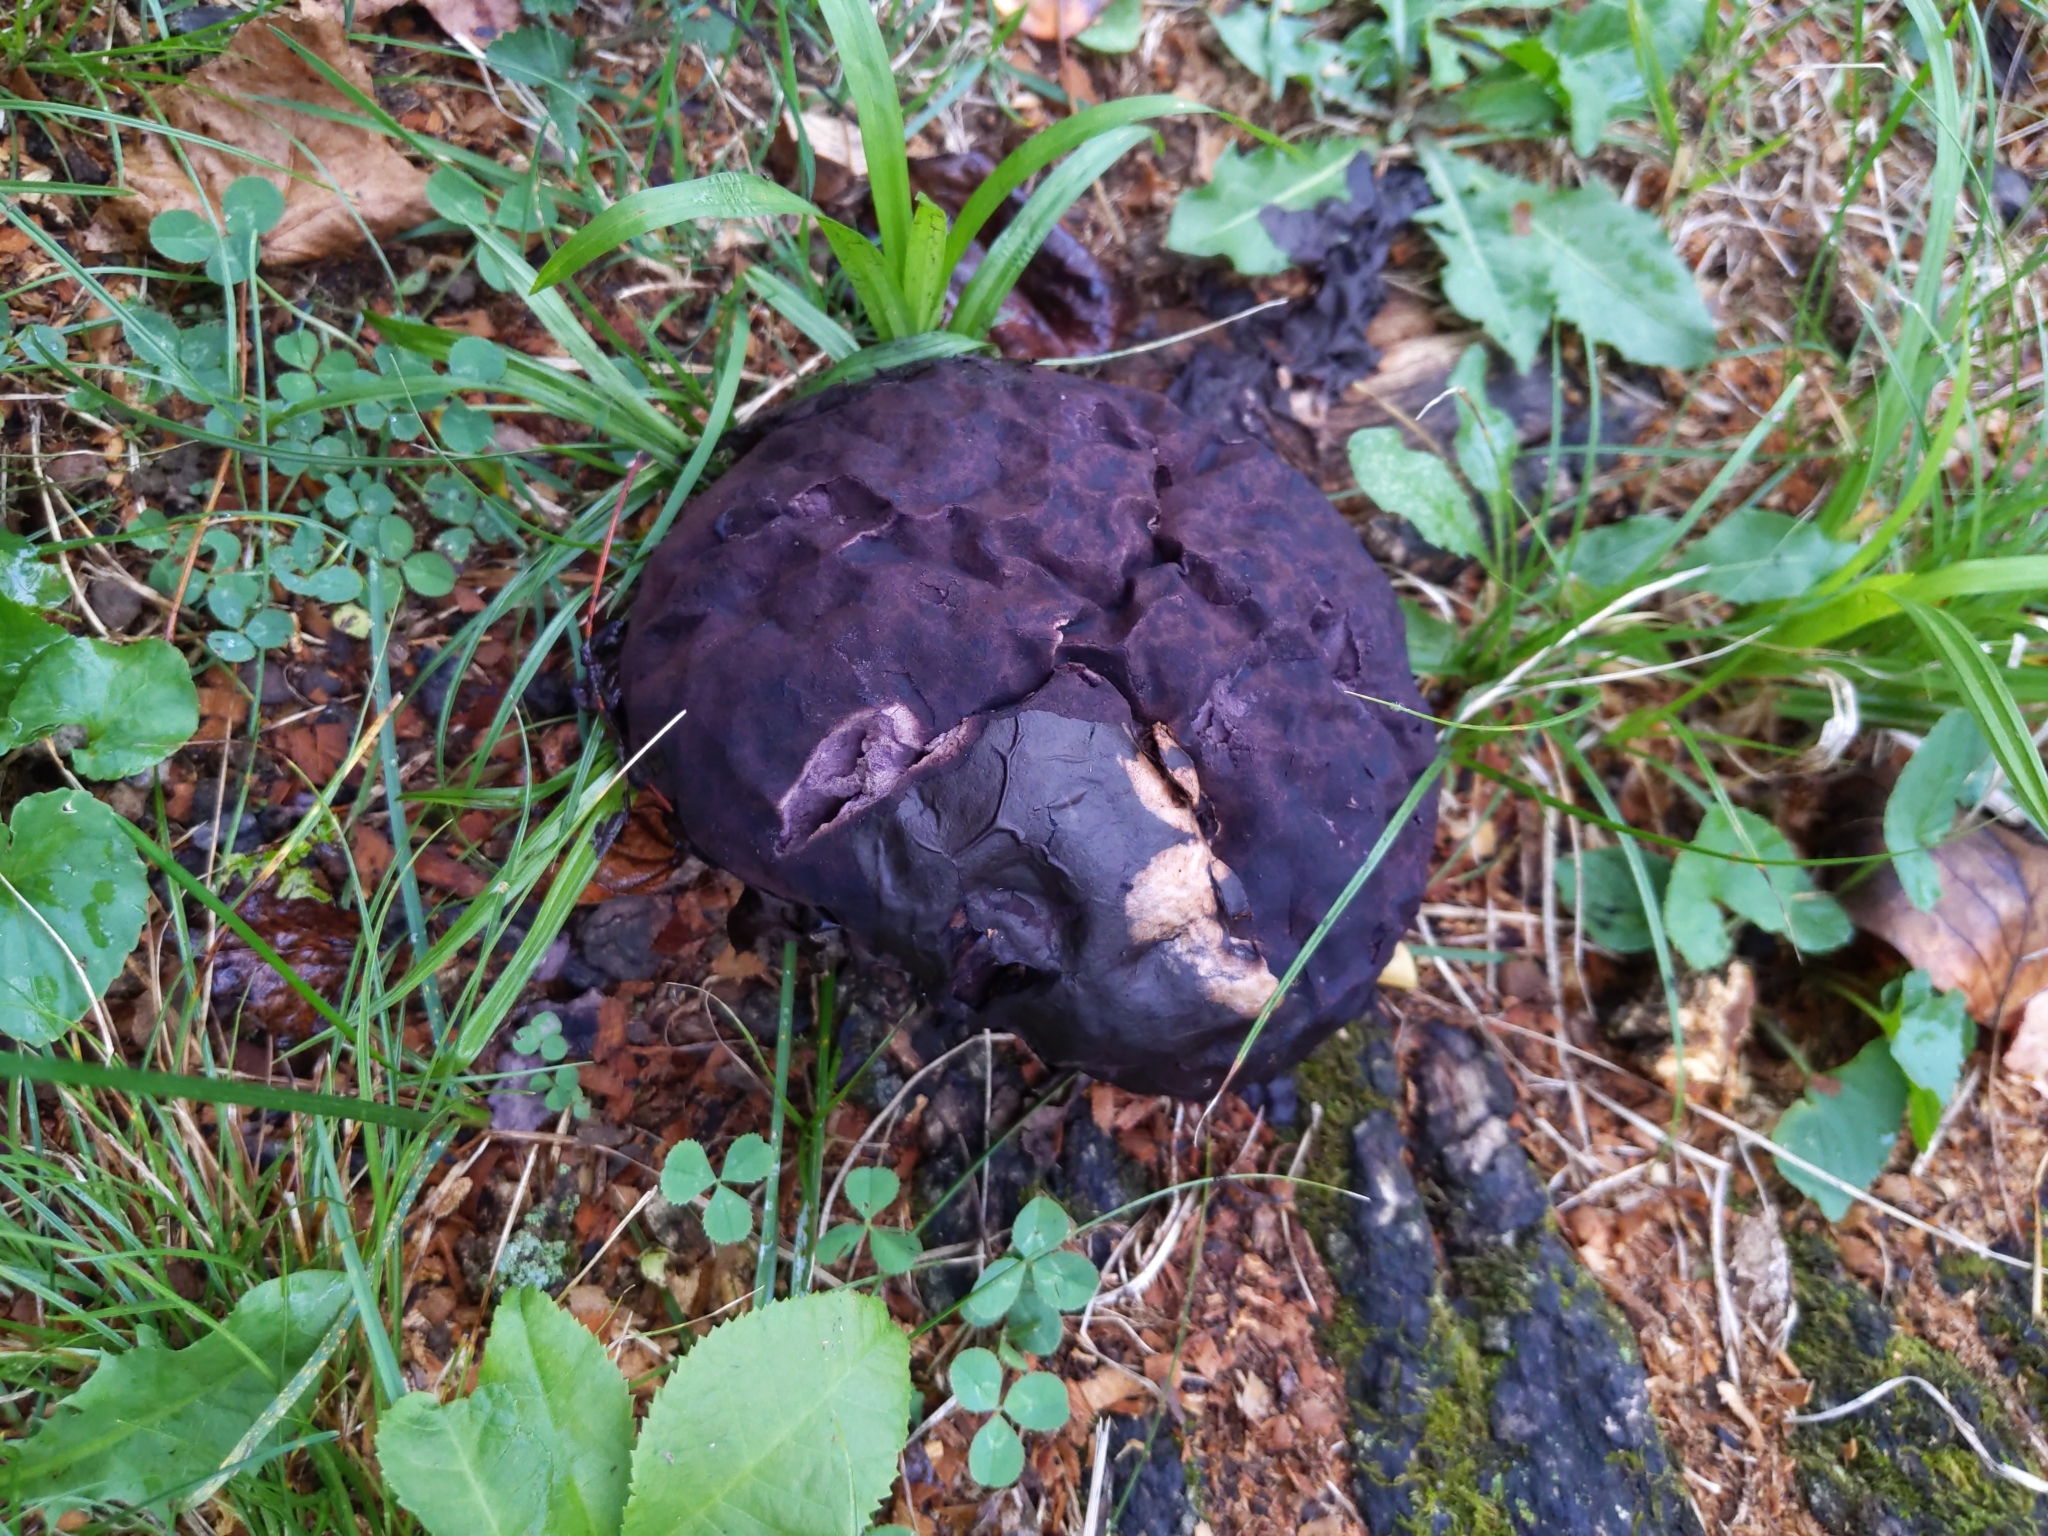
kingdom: Fungi
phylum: Basidiomycota
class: Agaricomycetes
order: Agaricales
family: Lycoperdaceae
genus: Calvatia
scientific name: Calvatia cyathiformis
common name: Purple-spored puffball
